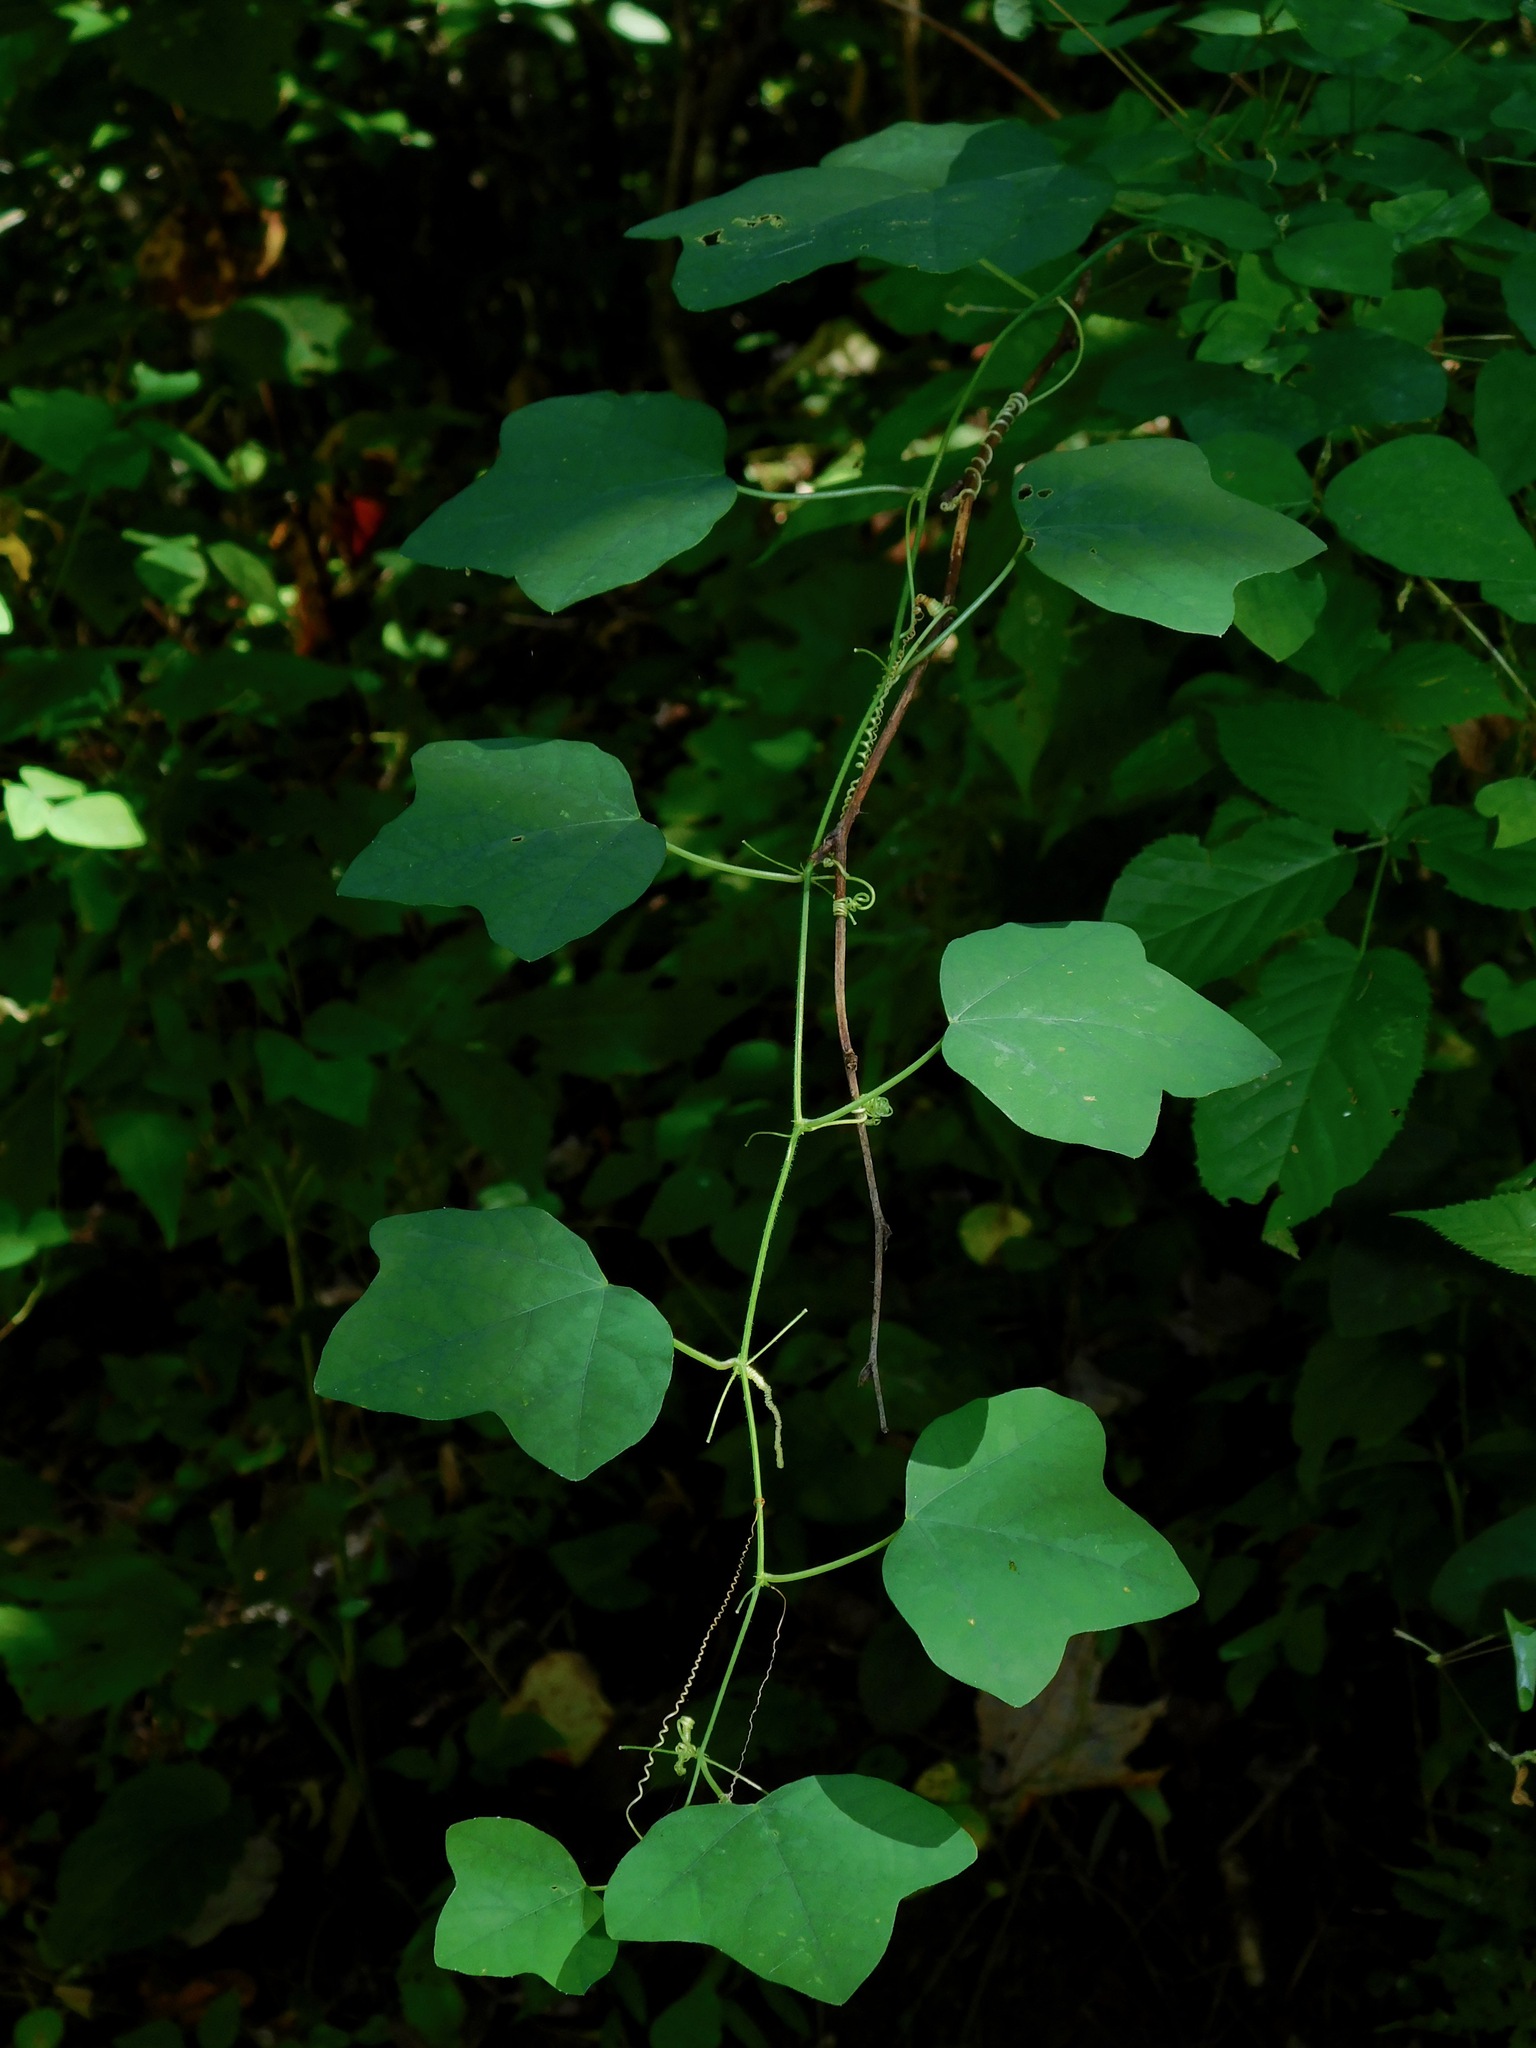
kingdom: Plantae
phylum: Tracheophyta
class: Magnoliopsida
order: Malpighiales
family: Passifloraceae
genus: Passiflora
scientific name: Passiflora lutea
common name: Yellow passionflower
